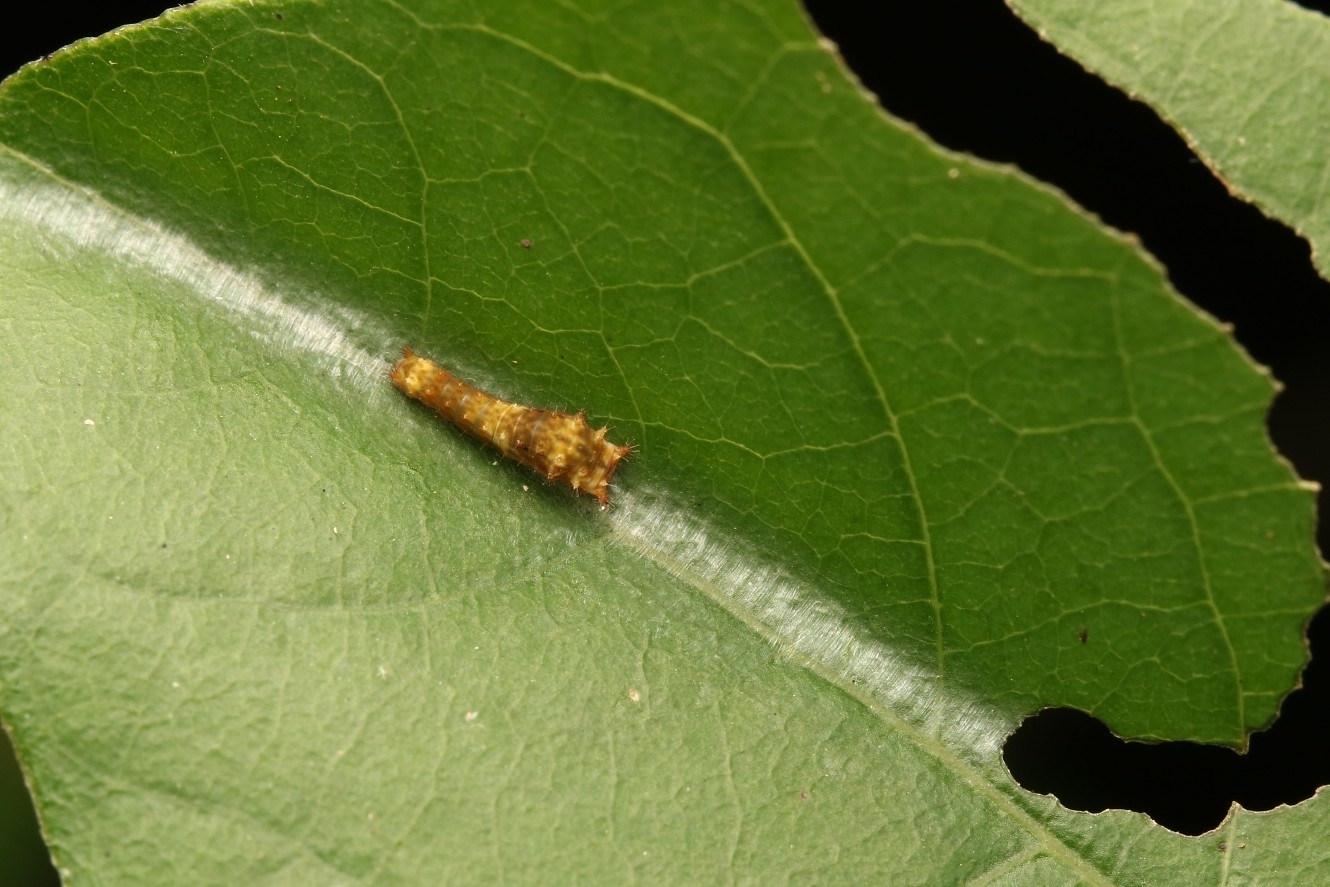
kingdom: Animalia
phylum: Arthropoda
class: Insecta
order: Lepidoptera
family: Papilionidae
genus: Papilio
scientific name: Papilio troilus
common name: Spicebush swallowtail
